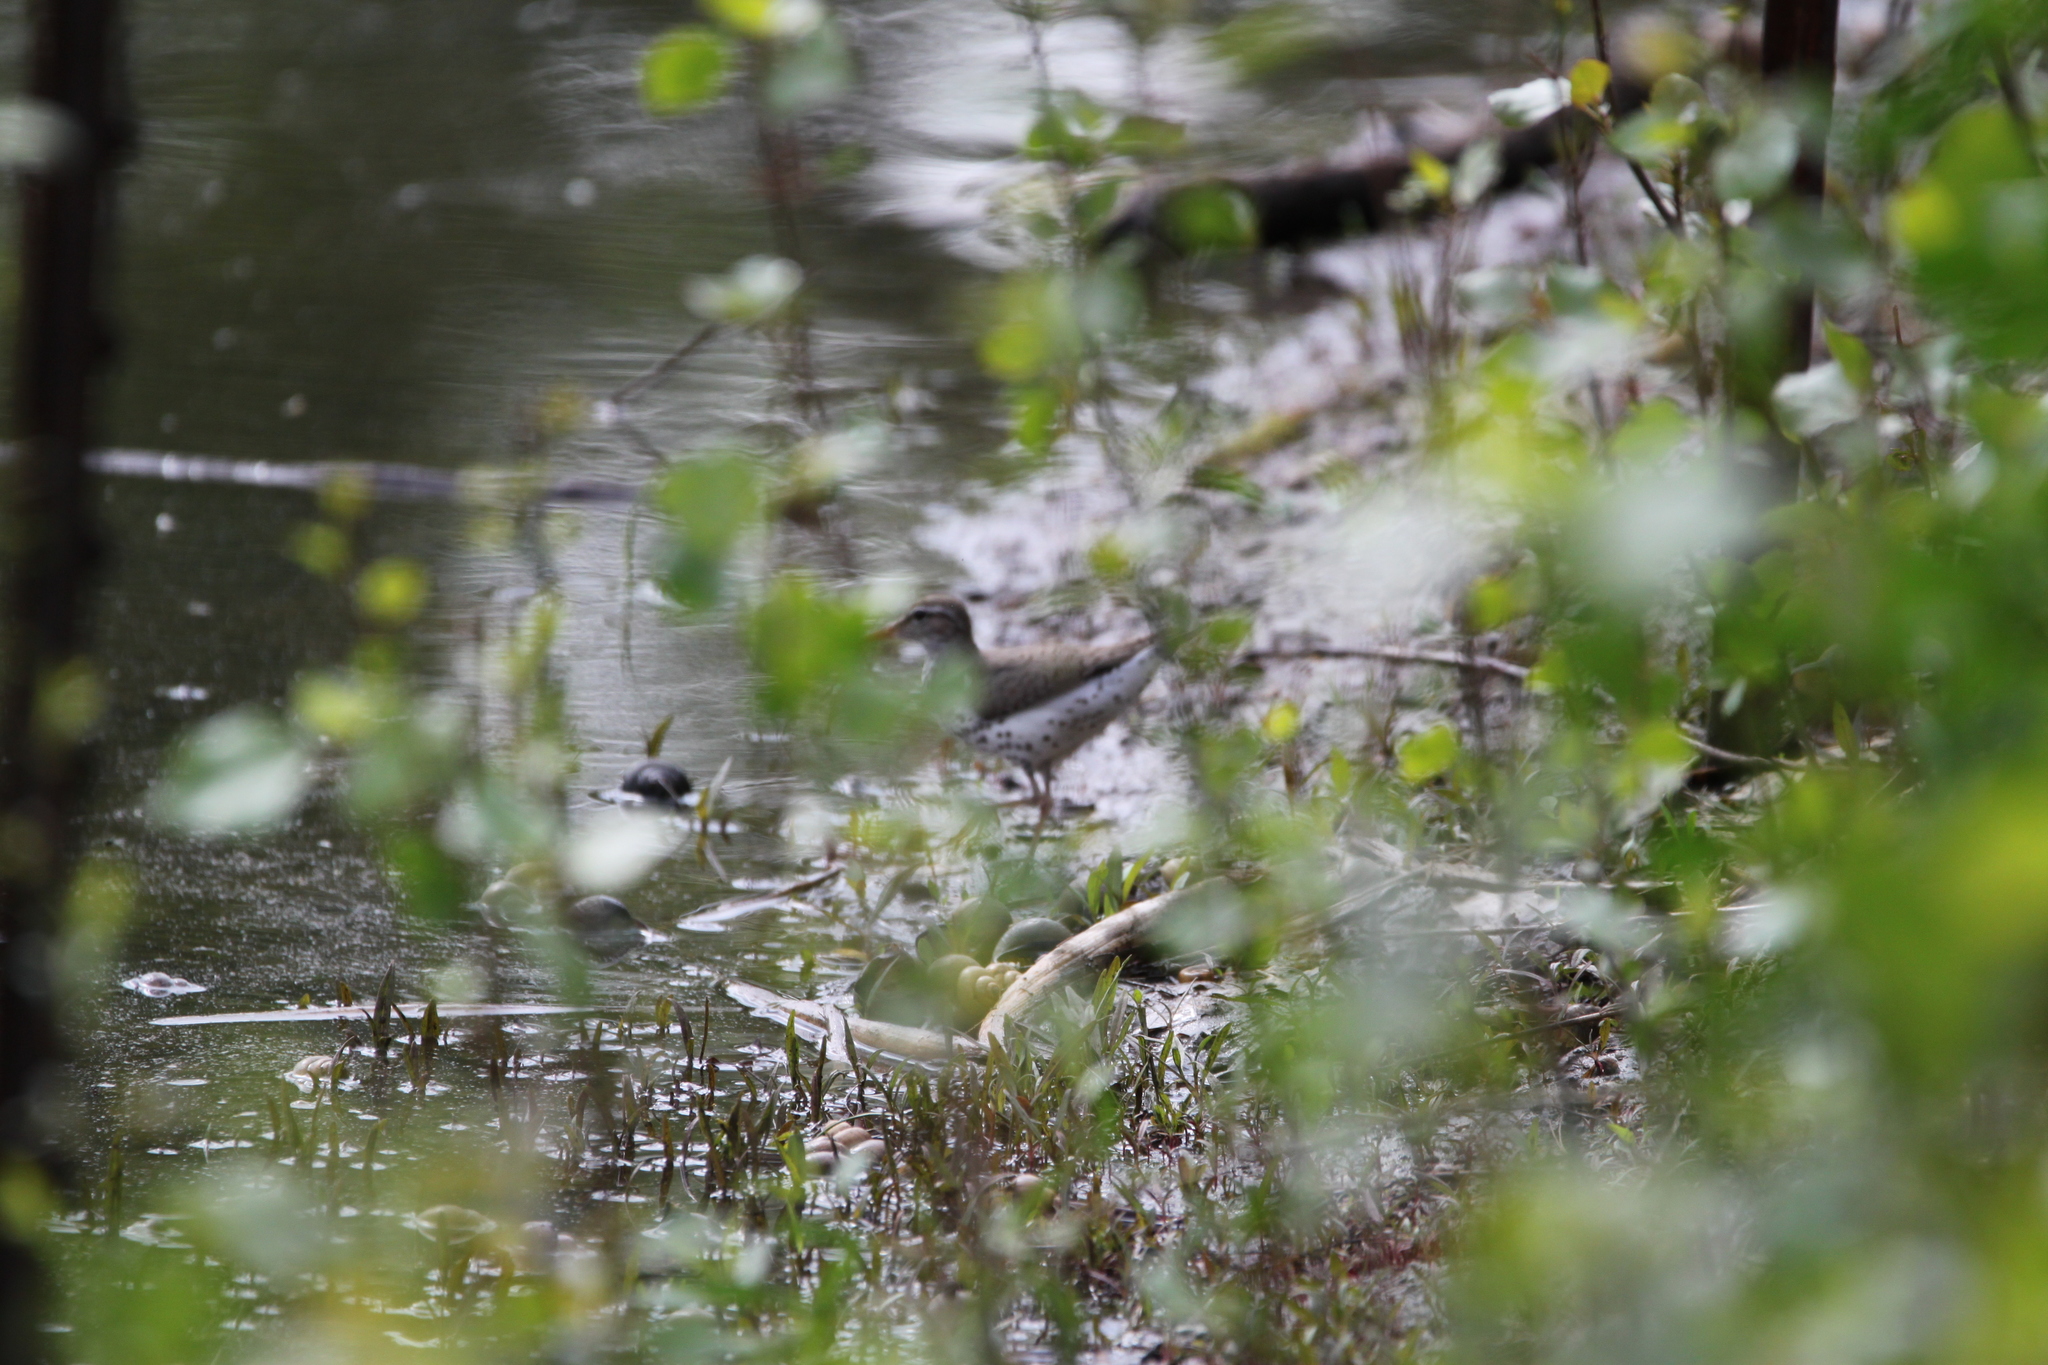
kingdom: Animalia
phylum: Chordata
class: Aves
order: Charadriiformes
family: Scolopacidae
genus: Actitis
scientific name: Actitis macularius
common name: Spotted sandpiper
